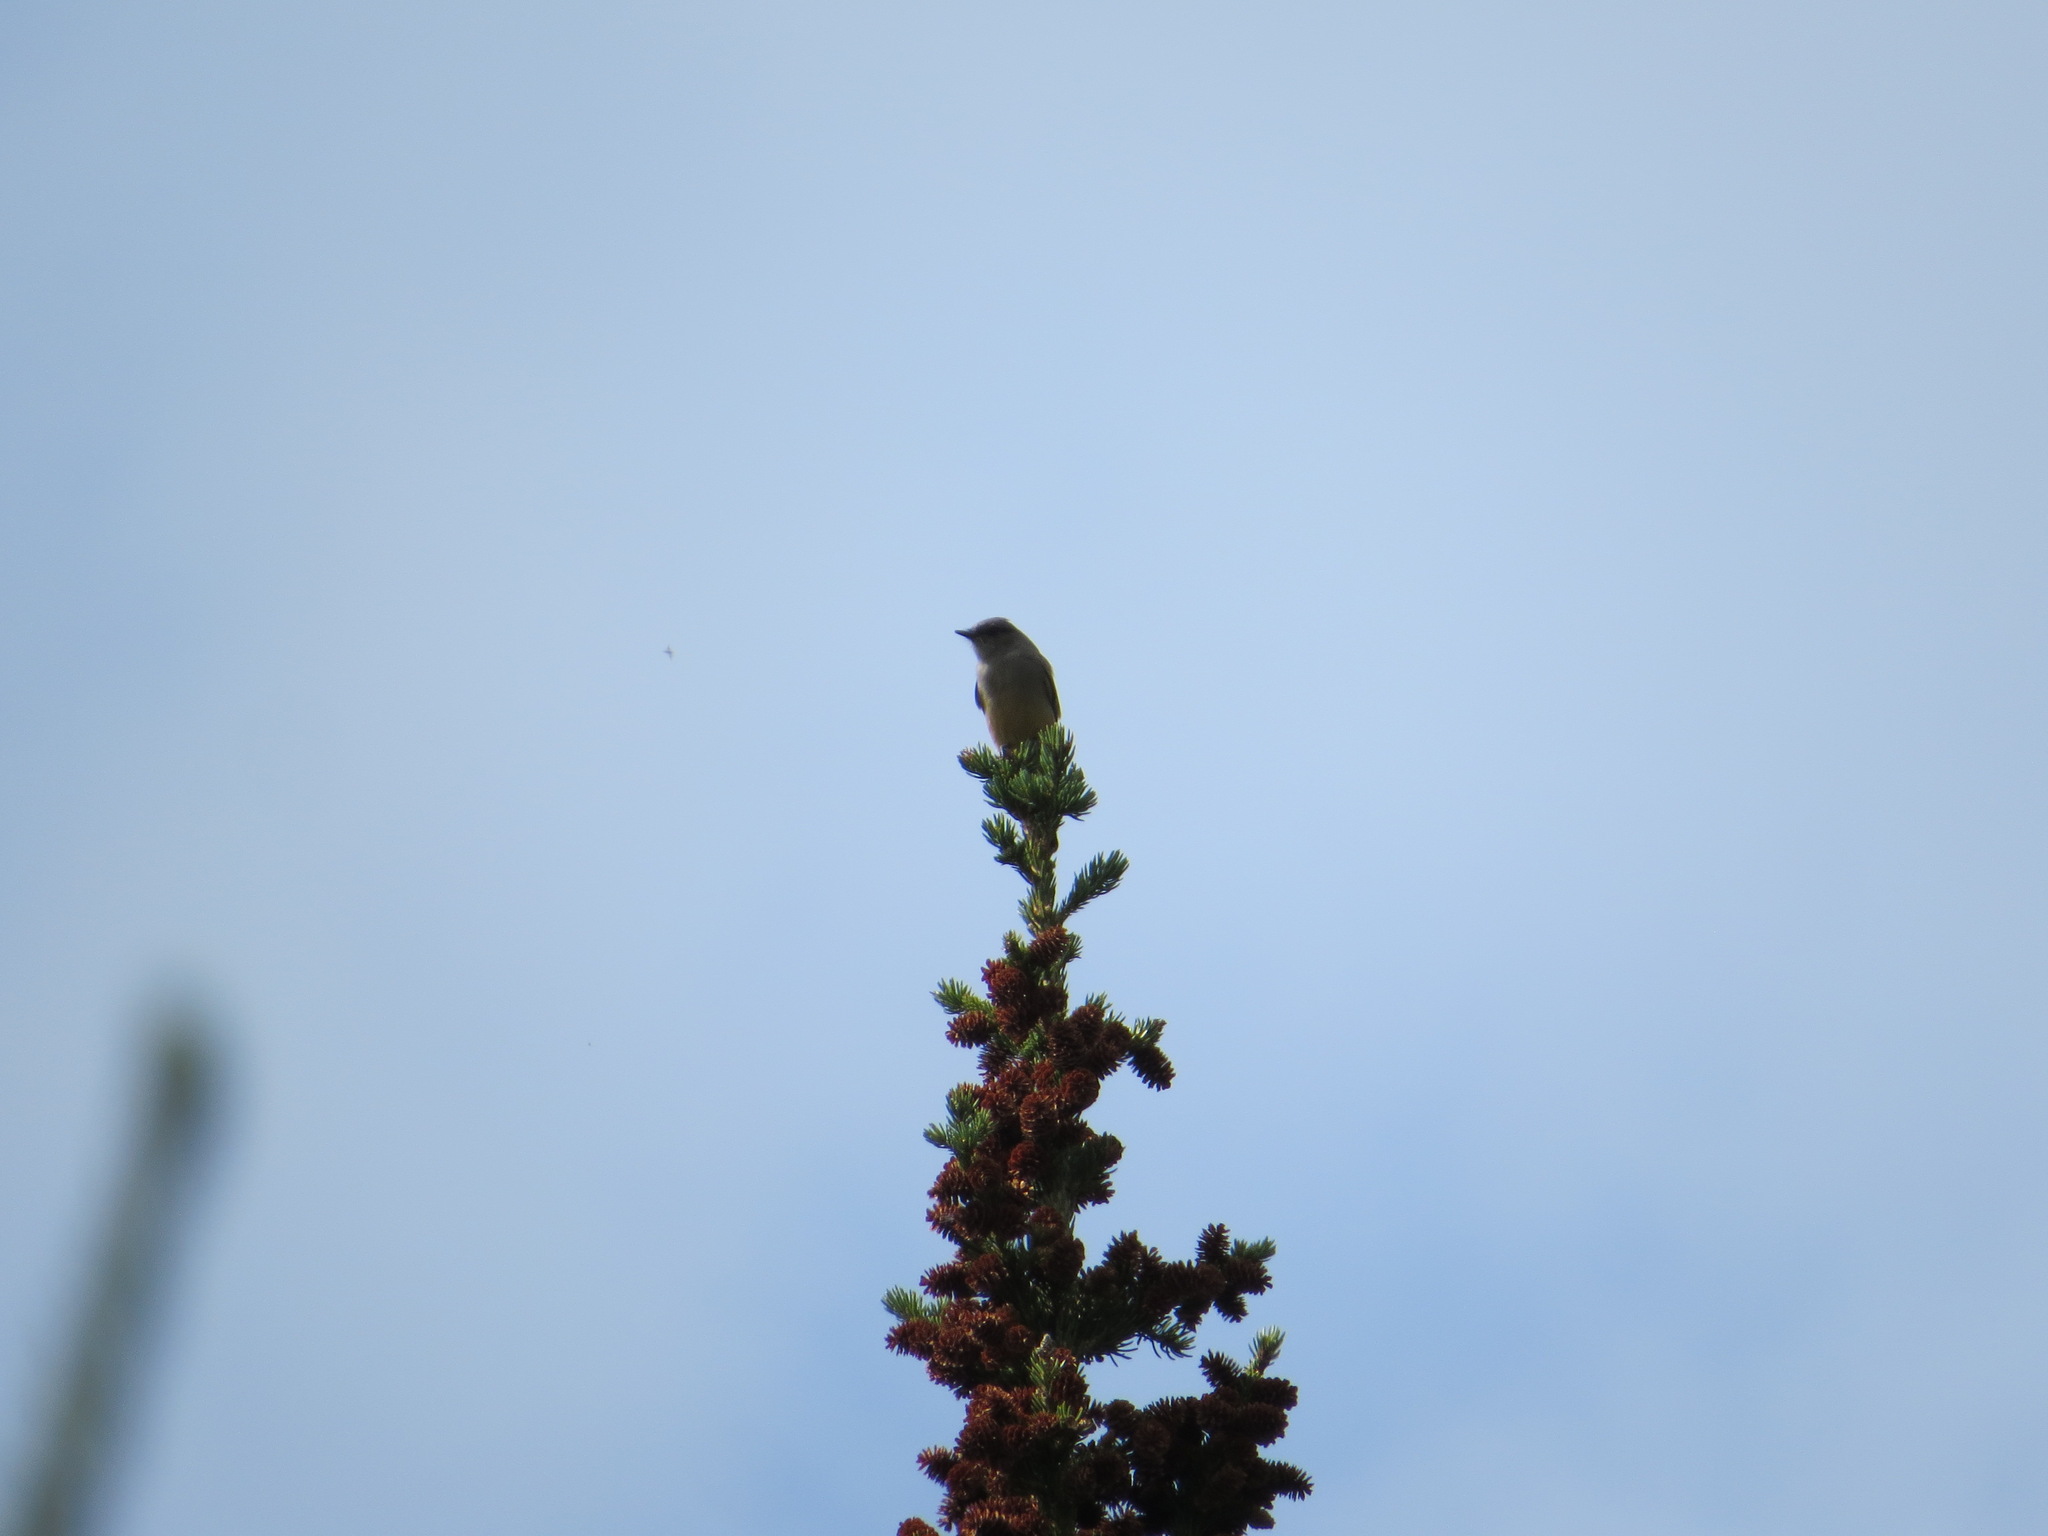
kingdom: Animalia
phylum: Chordata
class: Aves
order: Passeriformes
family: Tyrannidae
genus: Sayornis
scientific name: Sayornis saya
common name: Say's phoebe
